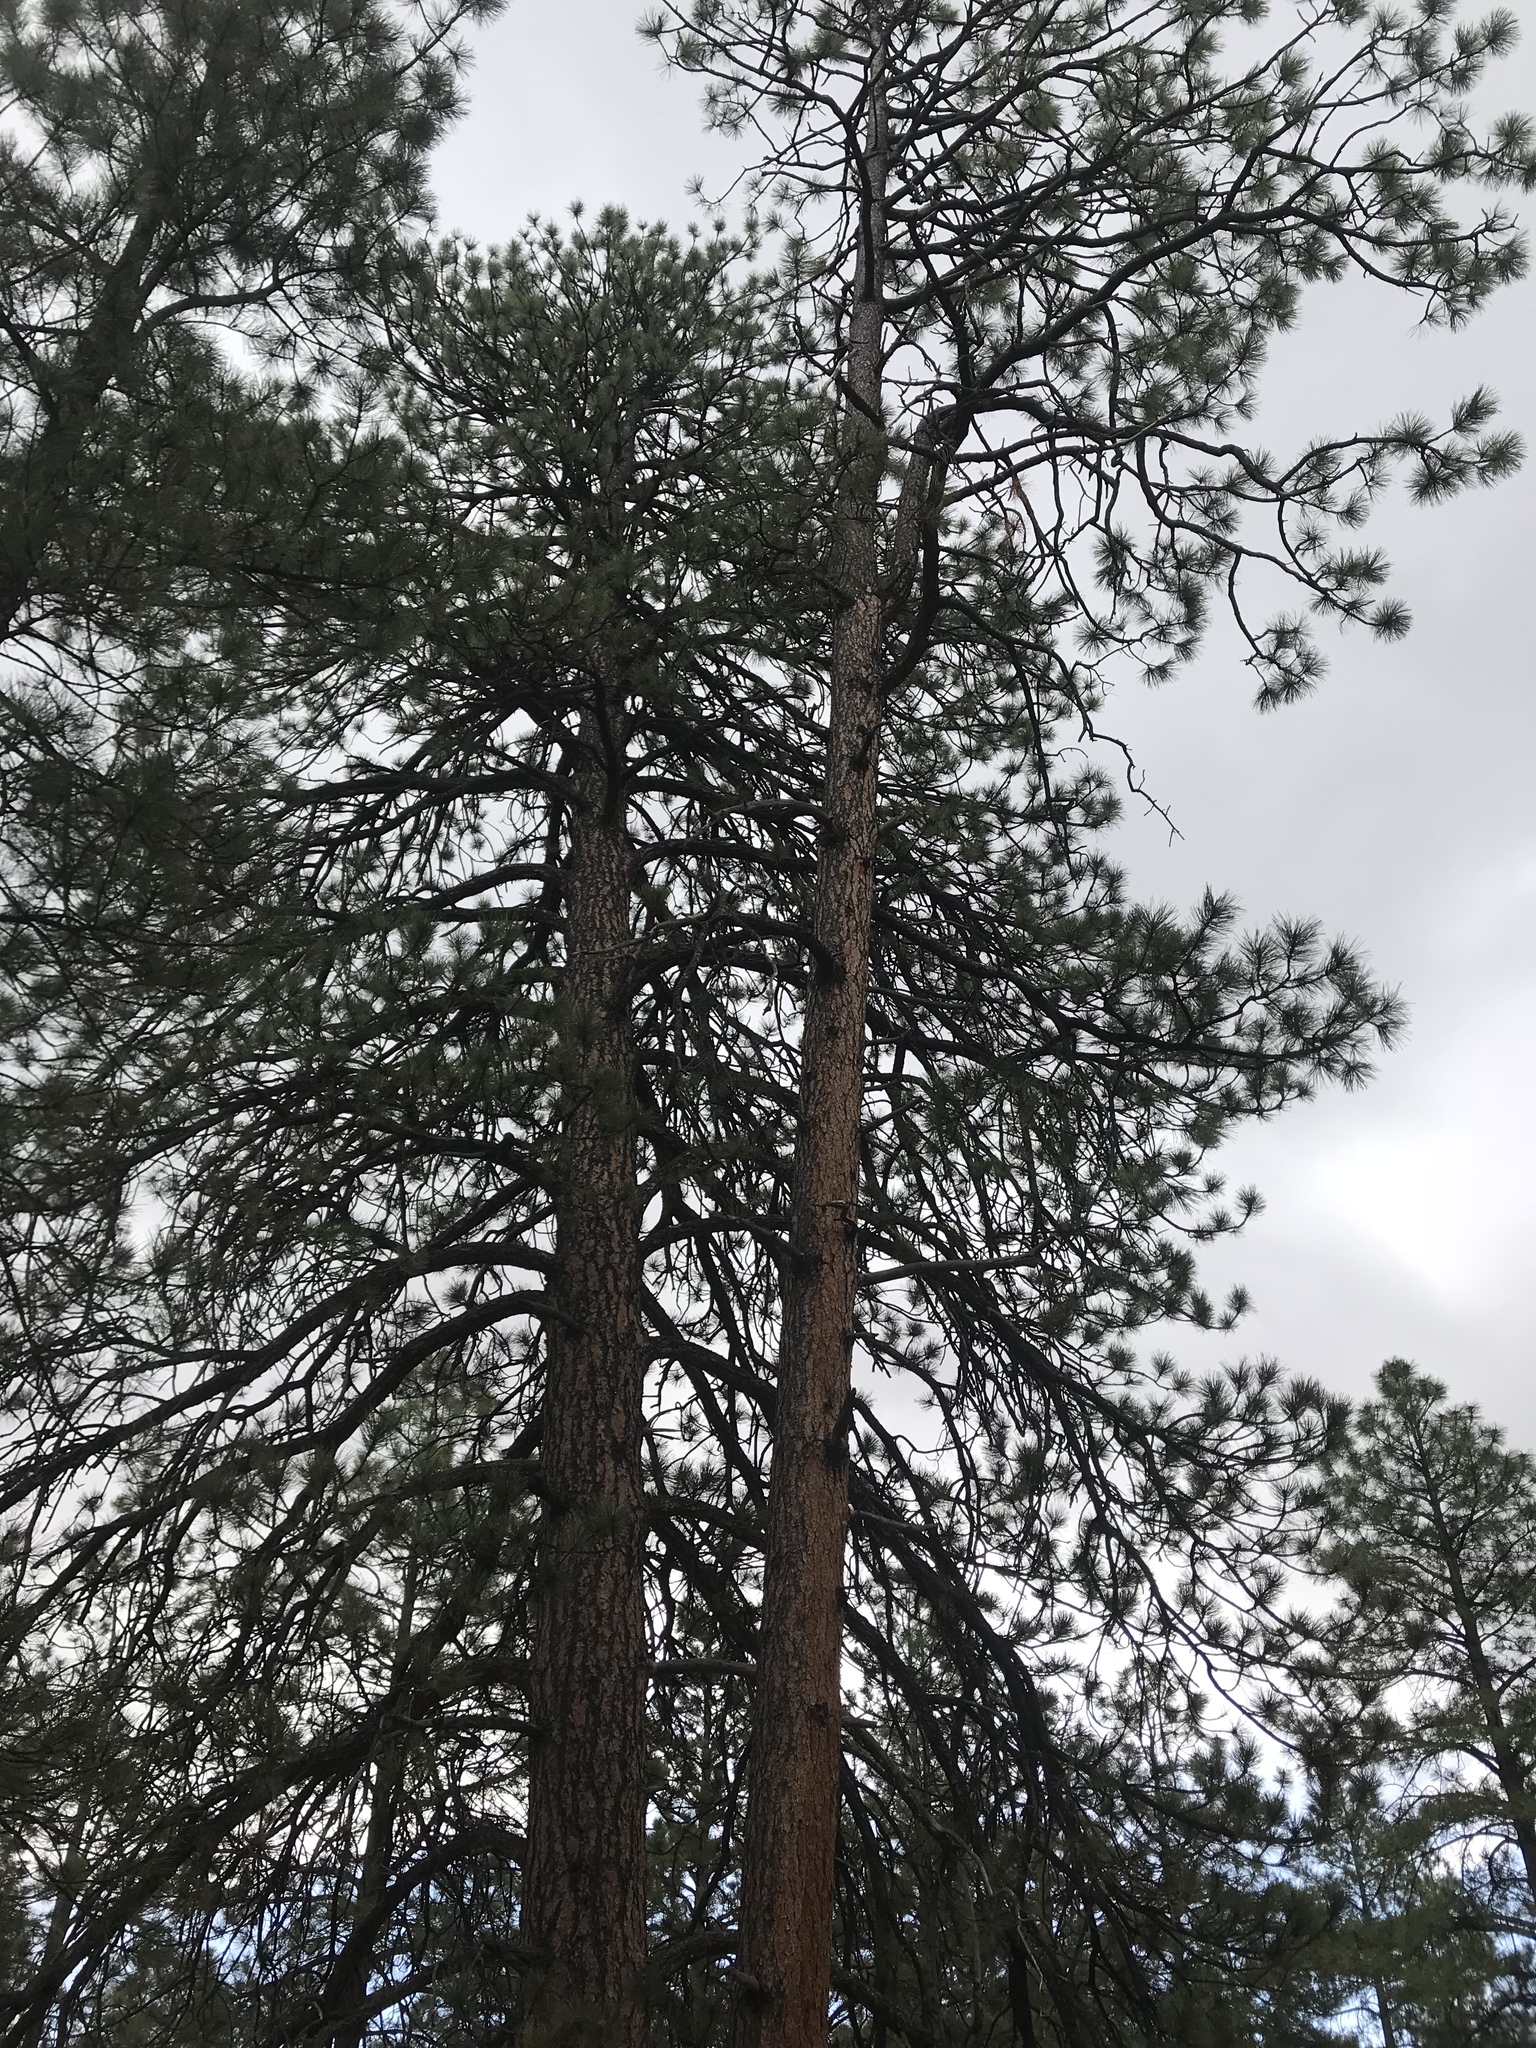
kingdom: Plantae
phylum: Tracheophyta
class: Pinopsida
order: Pinales
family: Pinaceae
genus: Pinus
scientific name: Pinus ponderosa
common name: Western yellow-pine
